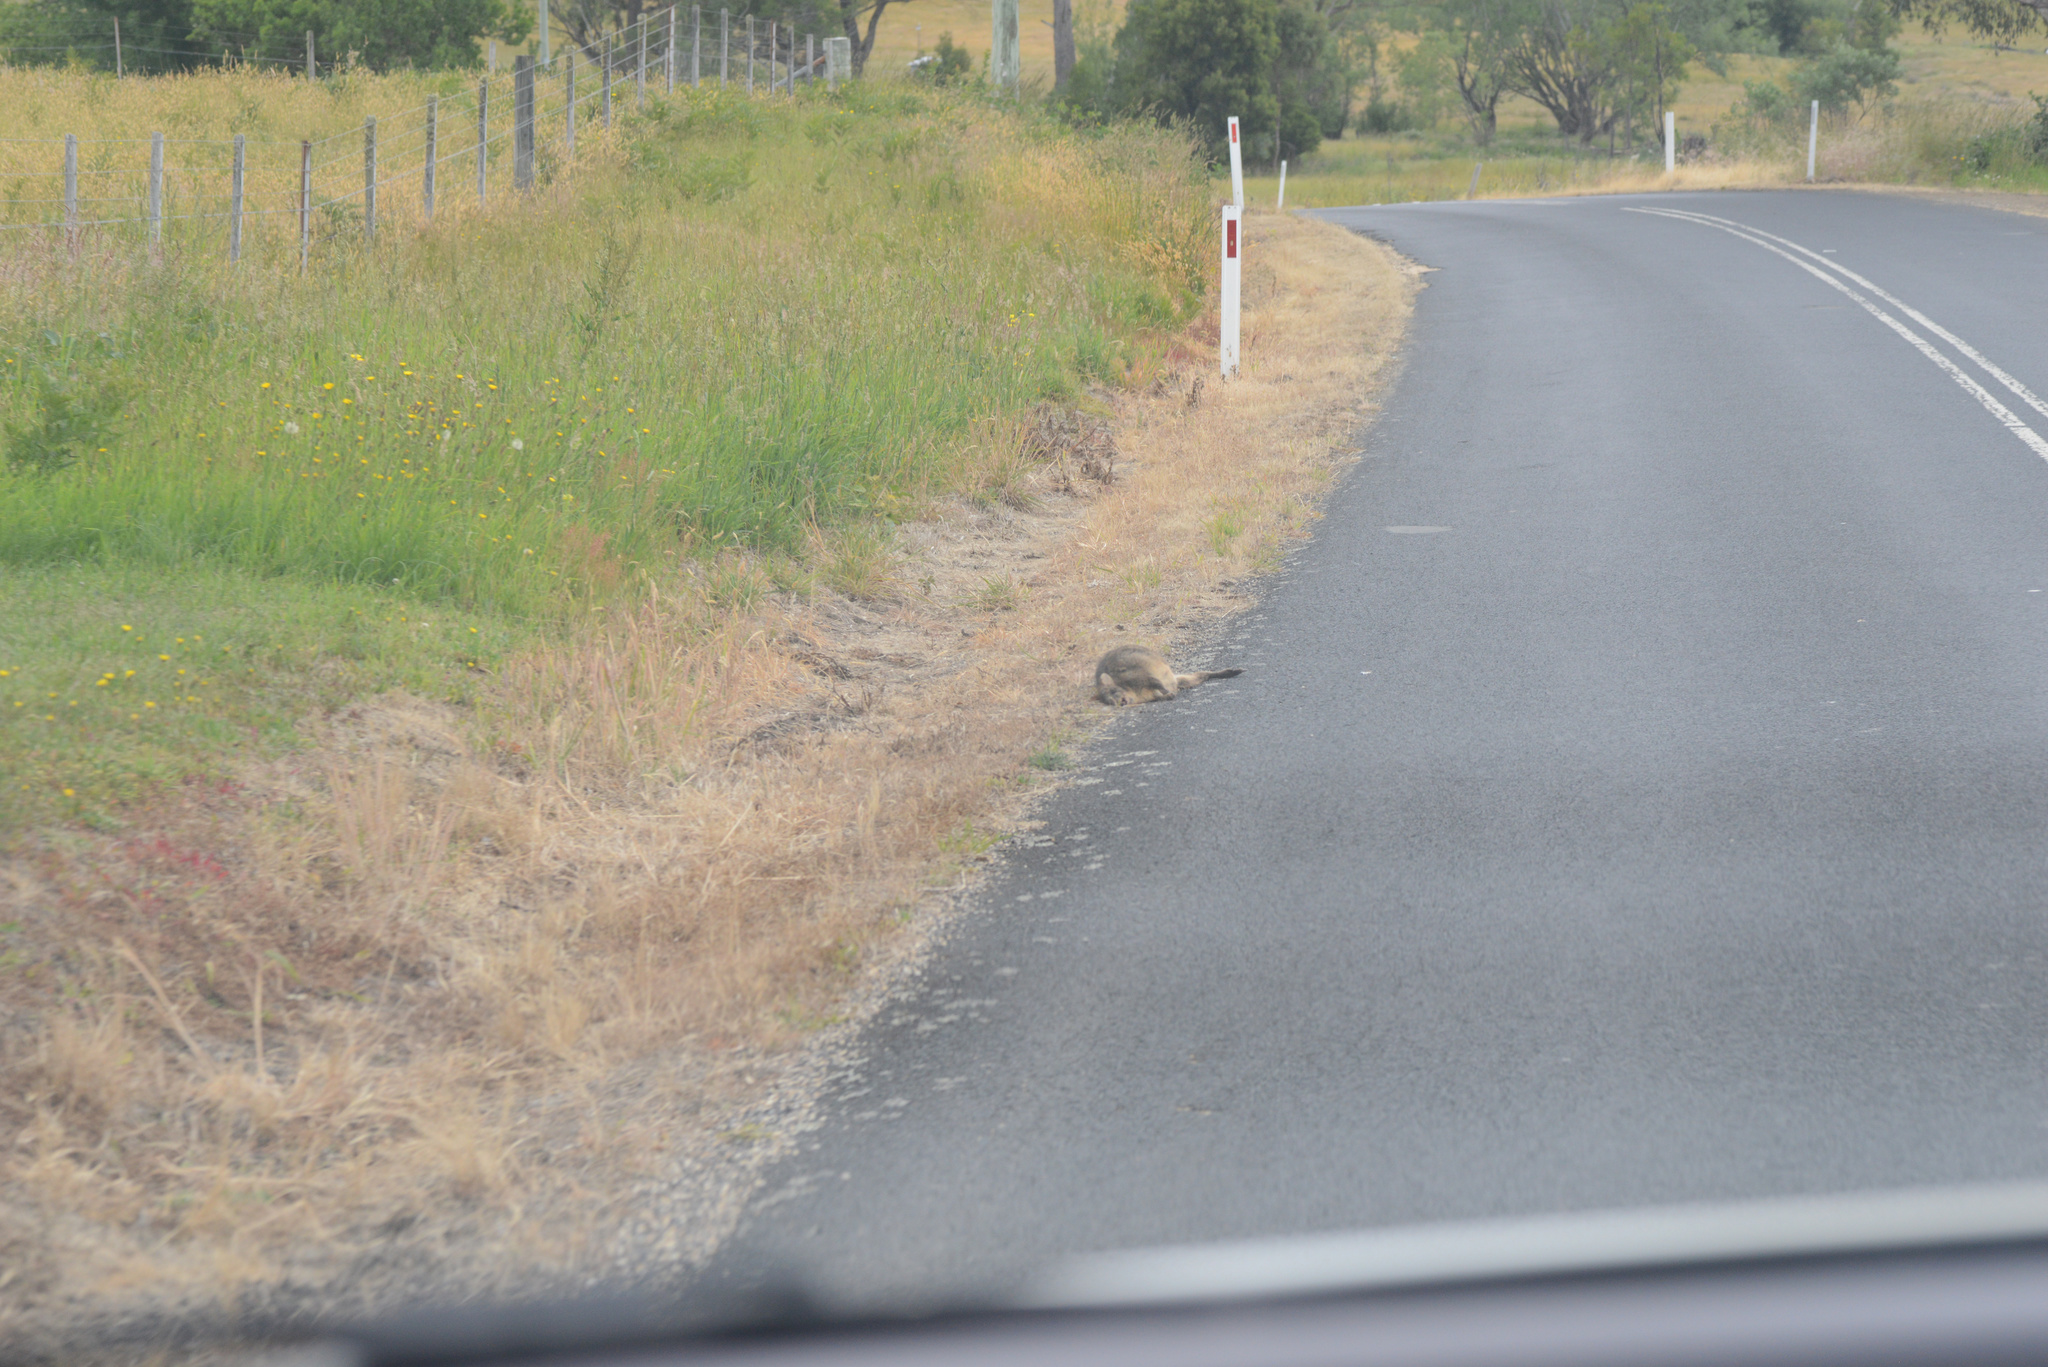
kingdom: Animalia
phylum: Chordata
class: Mammalia
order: Diprotodontia
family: Macropodidae
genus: Thylogale
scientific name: Thylogale billardierii
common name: Tasmanian pademelon
